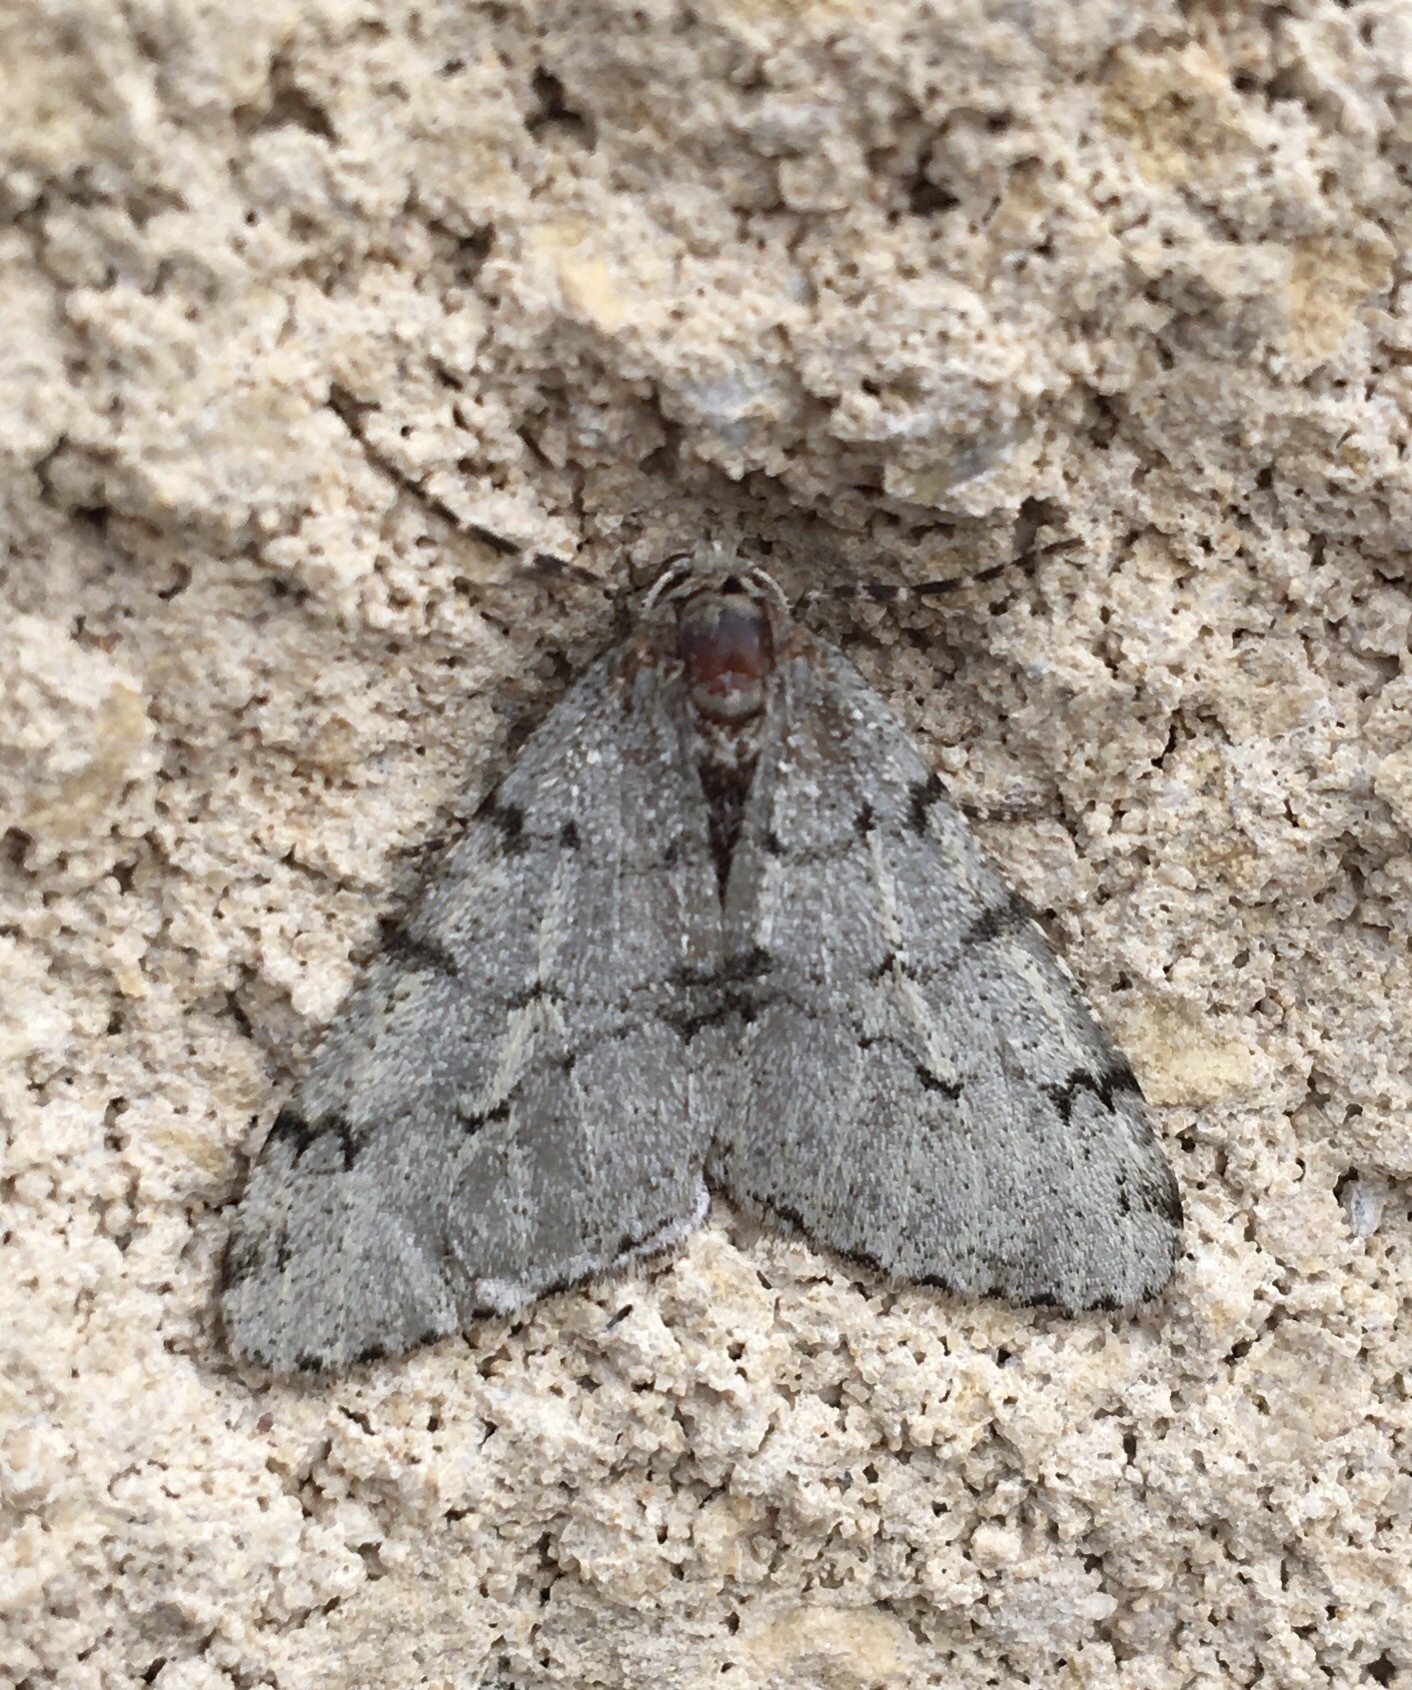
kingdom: Animalia
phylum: Arthropoda
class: Insecta
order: Lepidoptera
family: Geometridae
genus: Phigalia
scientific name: Phigalia denticulata
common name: Toothed phigalia
